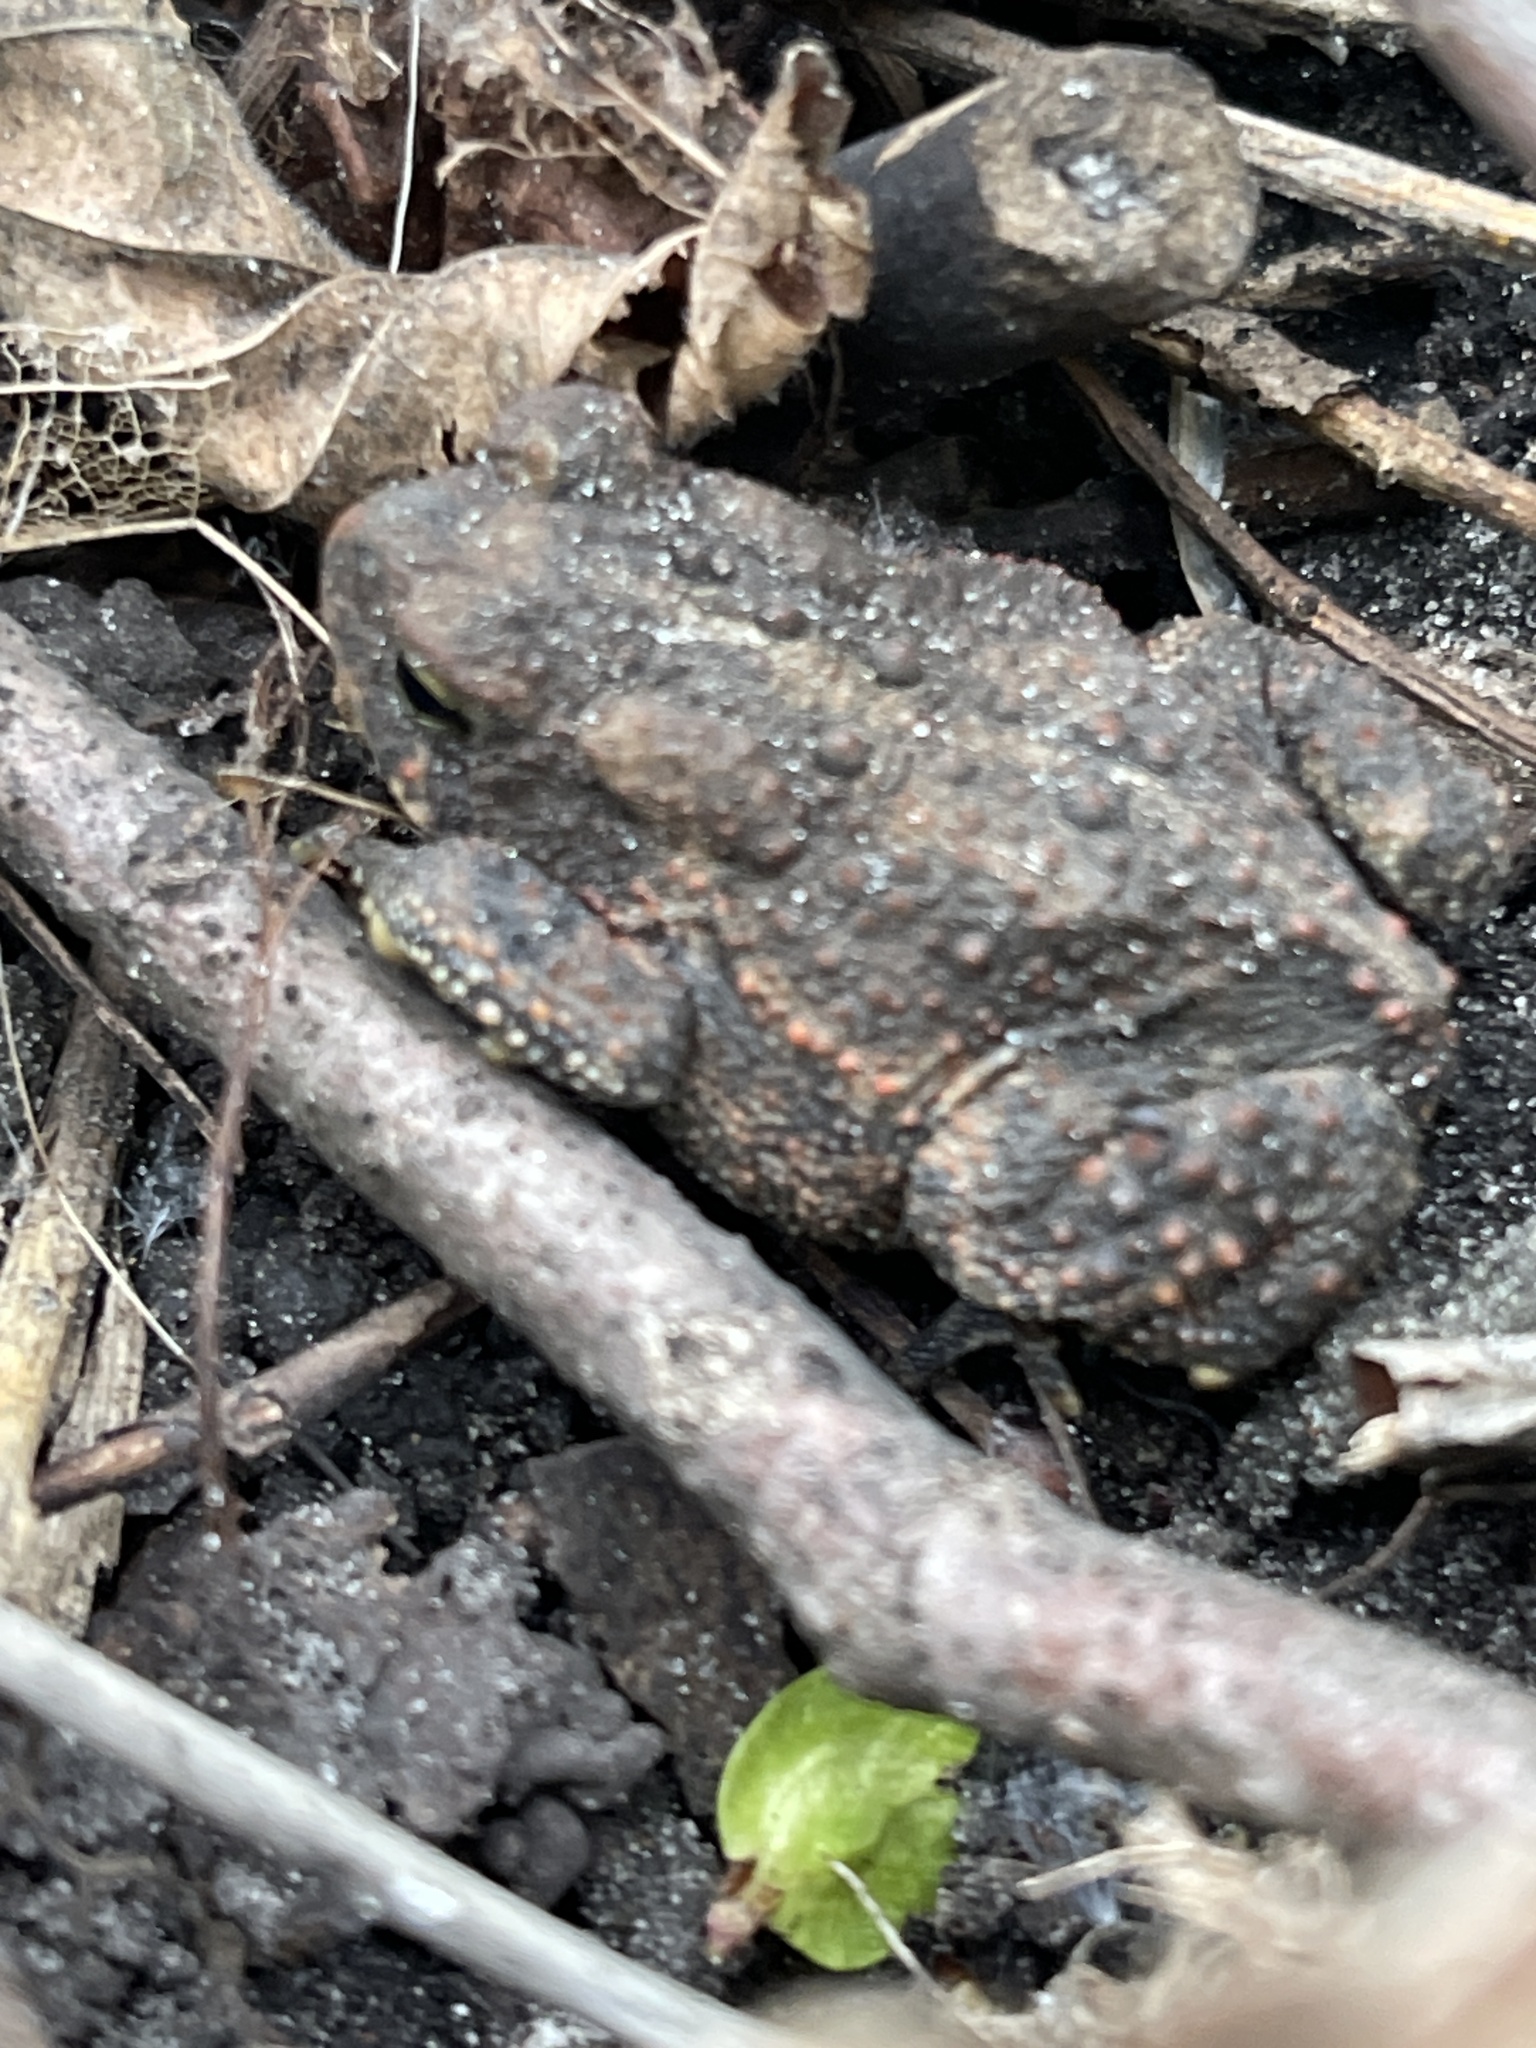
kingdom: Animalia
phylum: Chordata
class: Amphibia
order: Anura
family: Bufonidae
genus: Anaxyrus
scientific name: Anaxyrus americanus
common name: American toad
